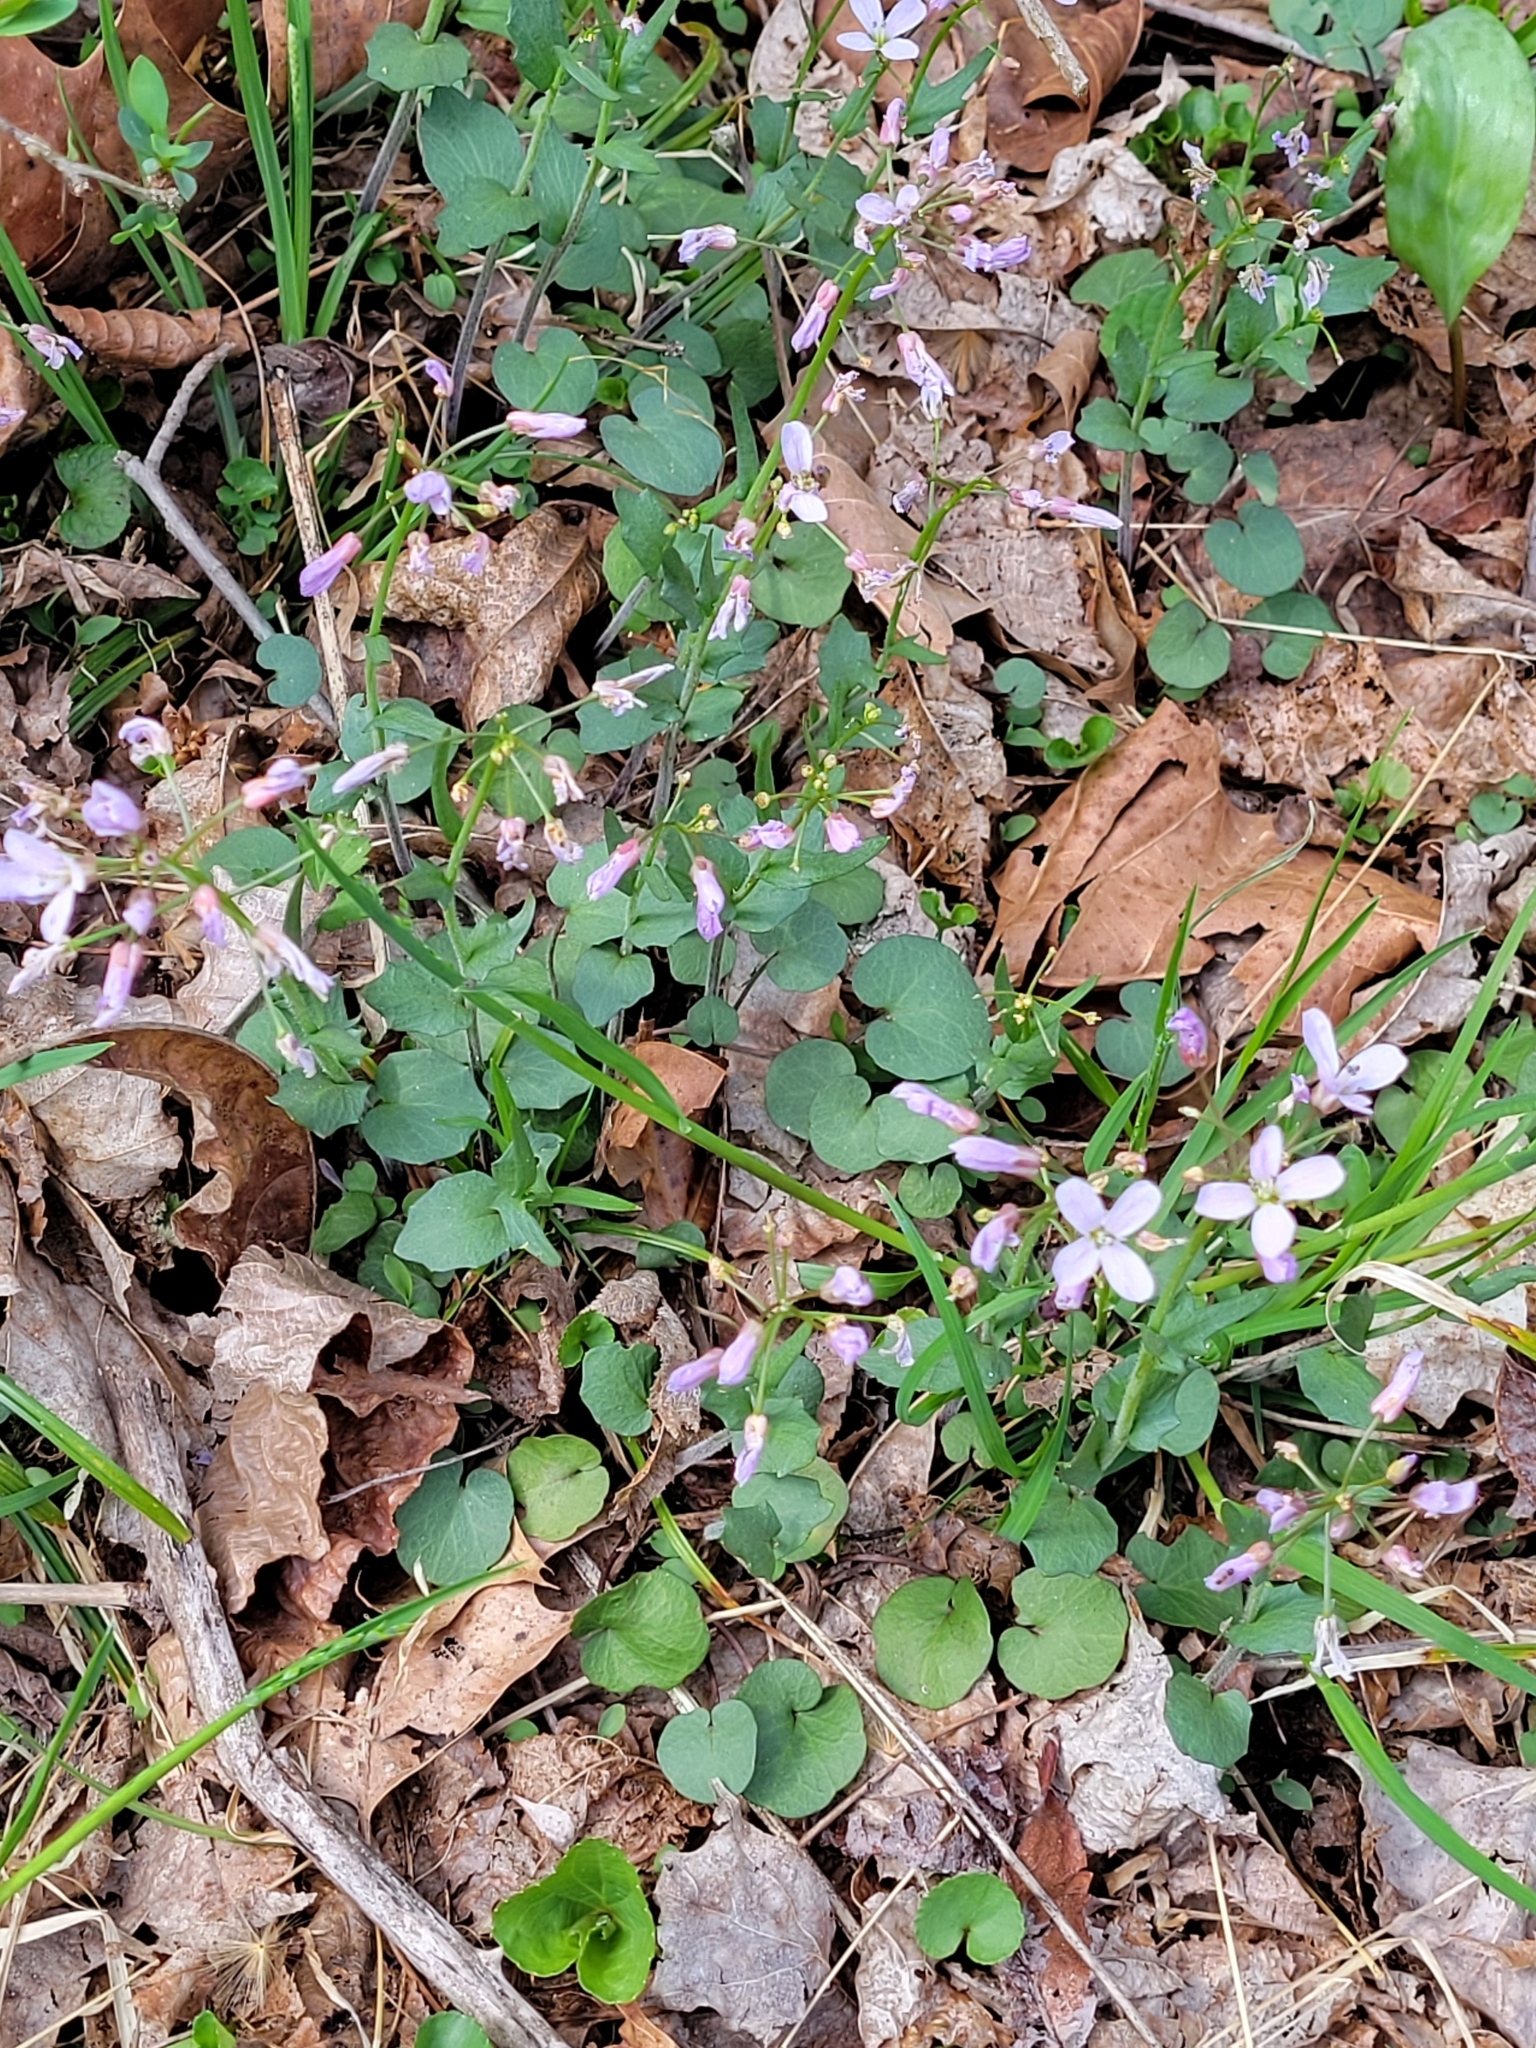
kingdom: Plantae
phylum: Tracheophyta
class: Magnoliopsida
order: Brassicales
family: Brassicaceae
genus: Cardamine
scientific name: Cardamine douglassii
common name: Purple cress
